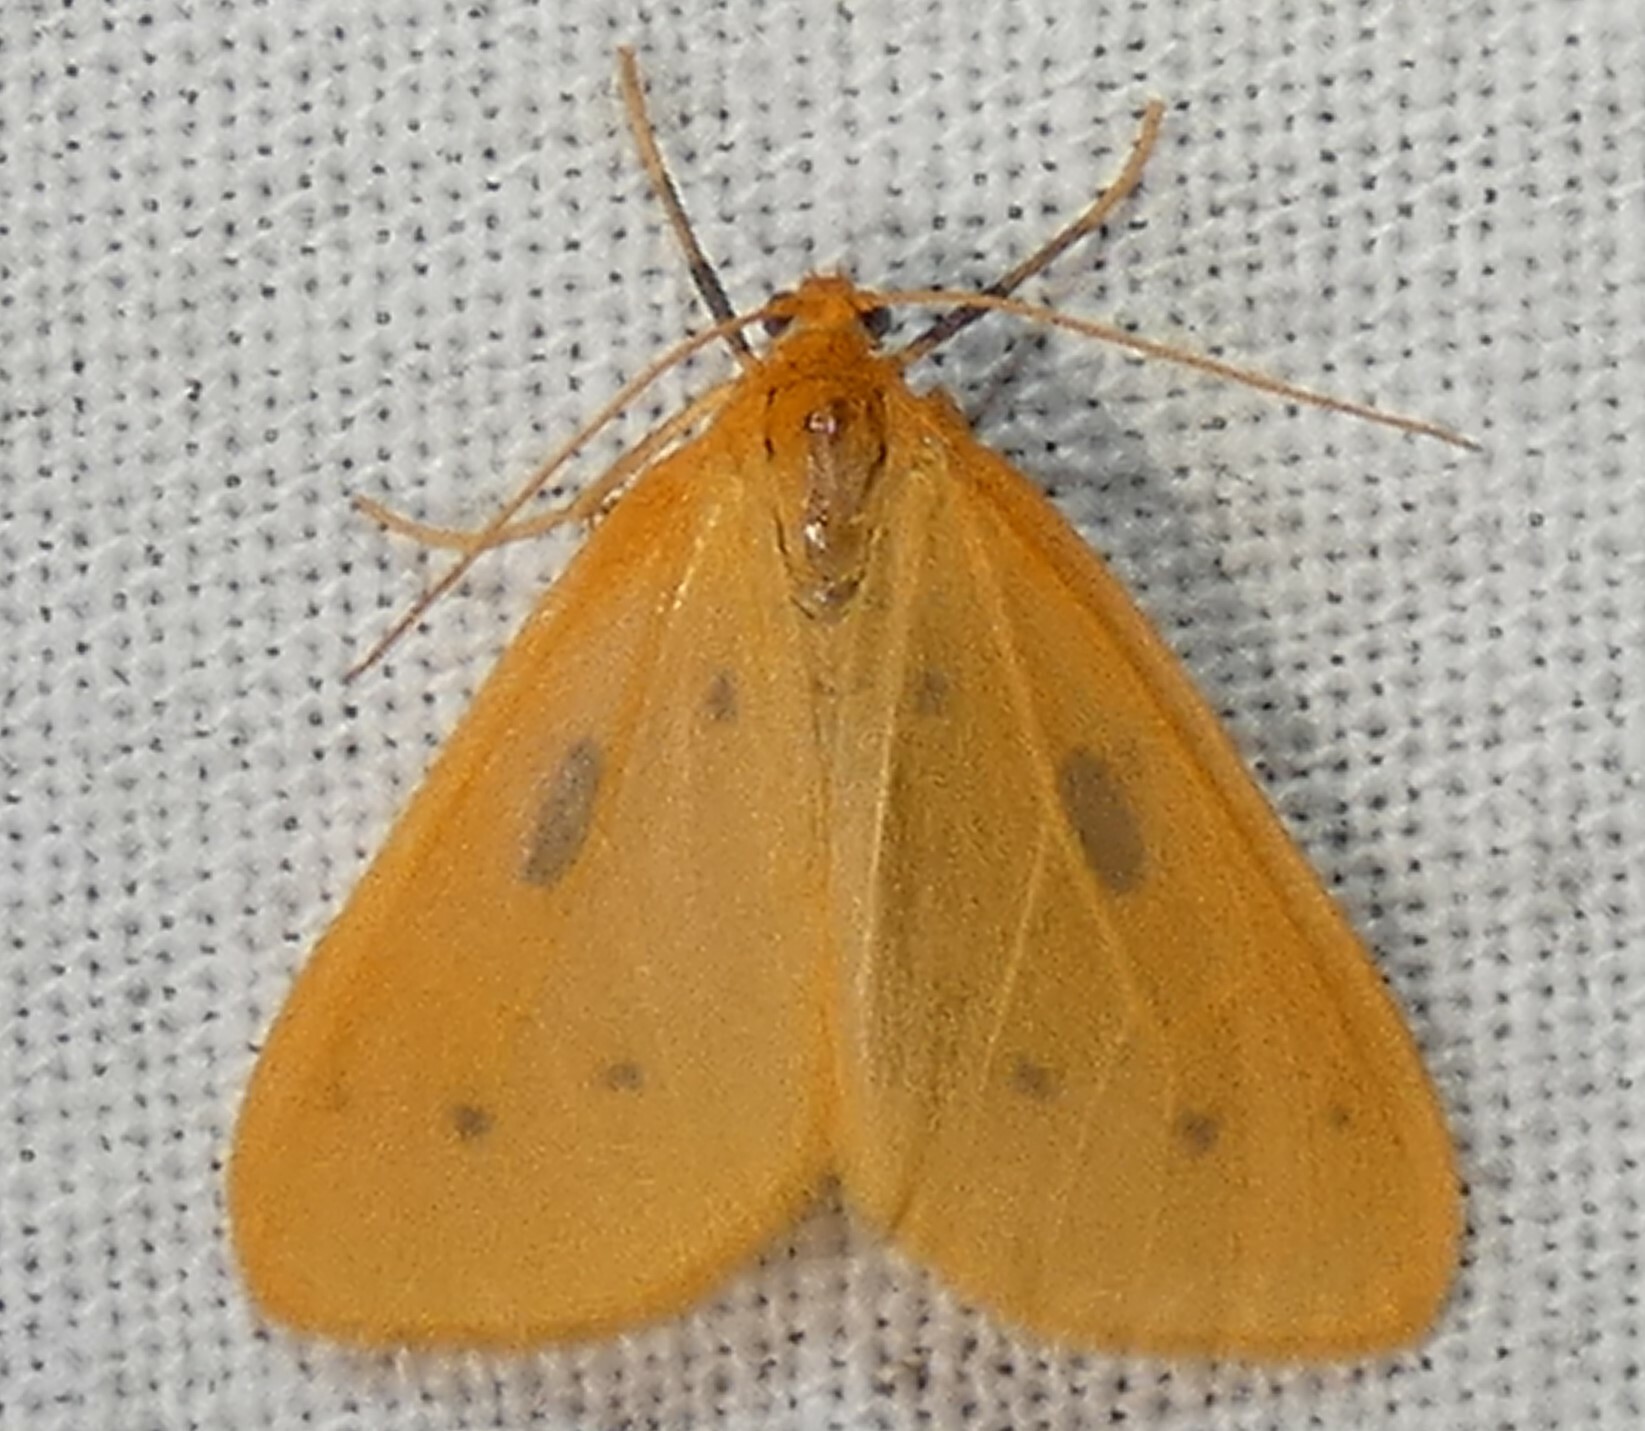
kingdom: Animalia
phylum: Arthropoda
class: Insecta
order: Lepidoptera
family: Geometridae
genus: Eubaphe
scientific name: Eubaphe meridiana
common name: Little beggar
